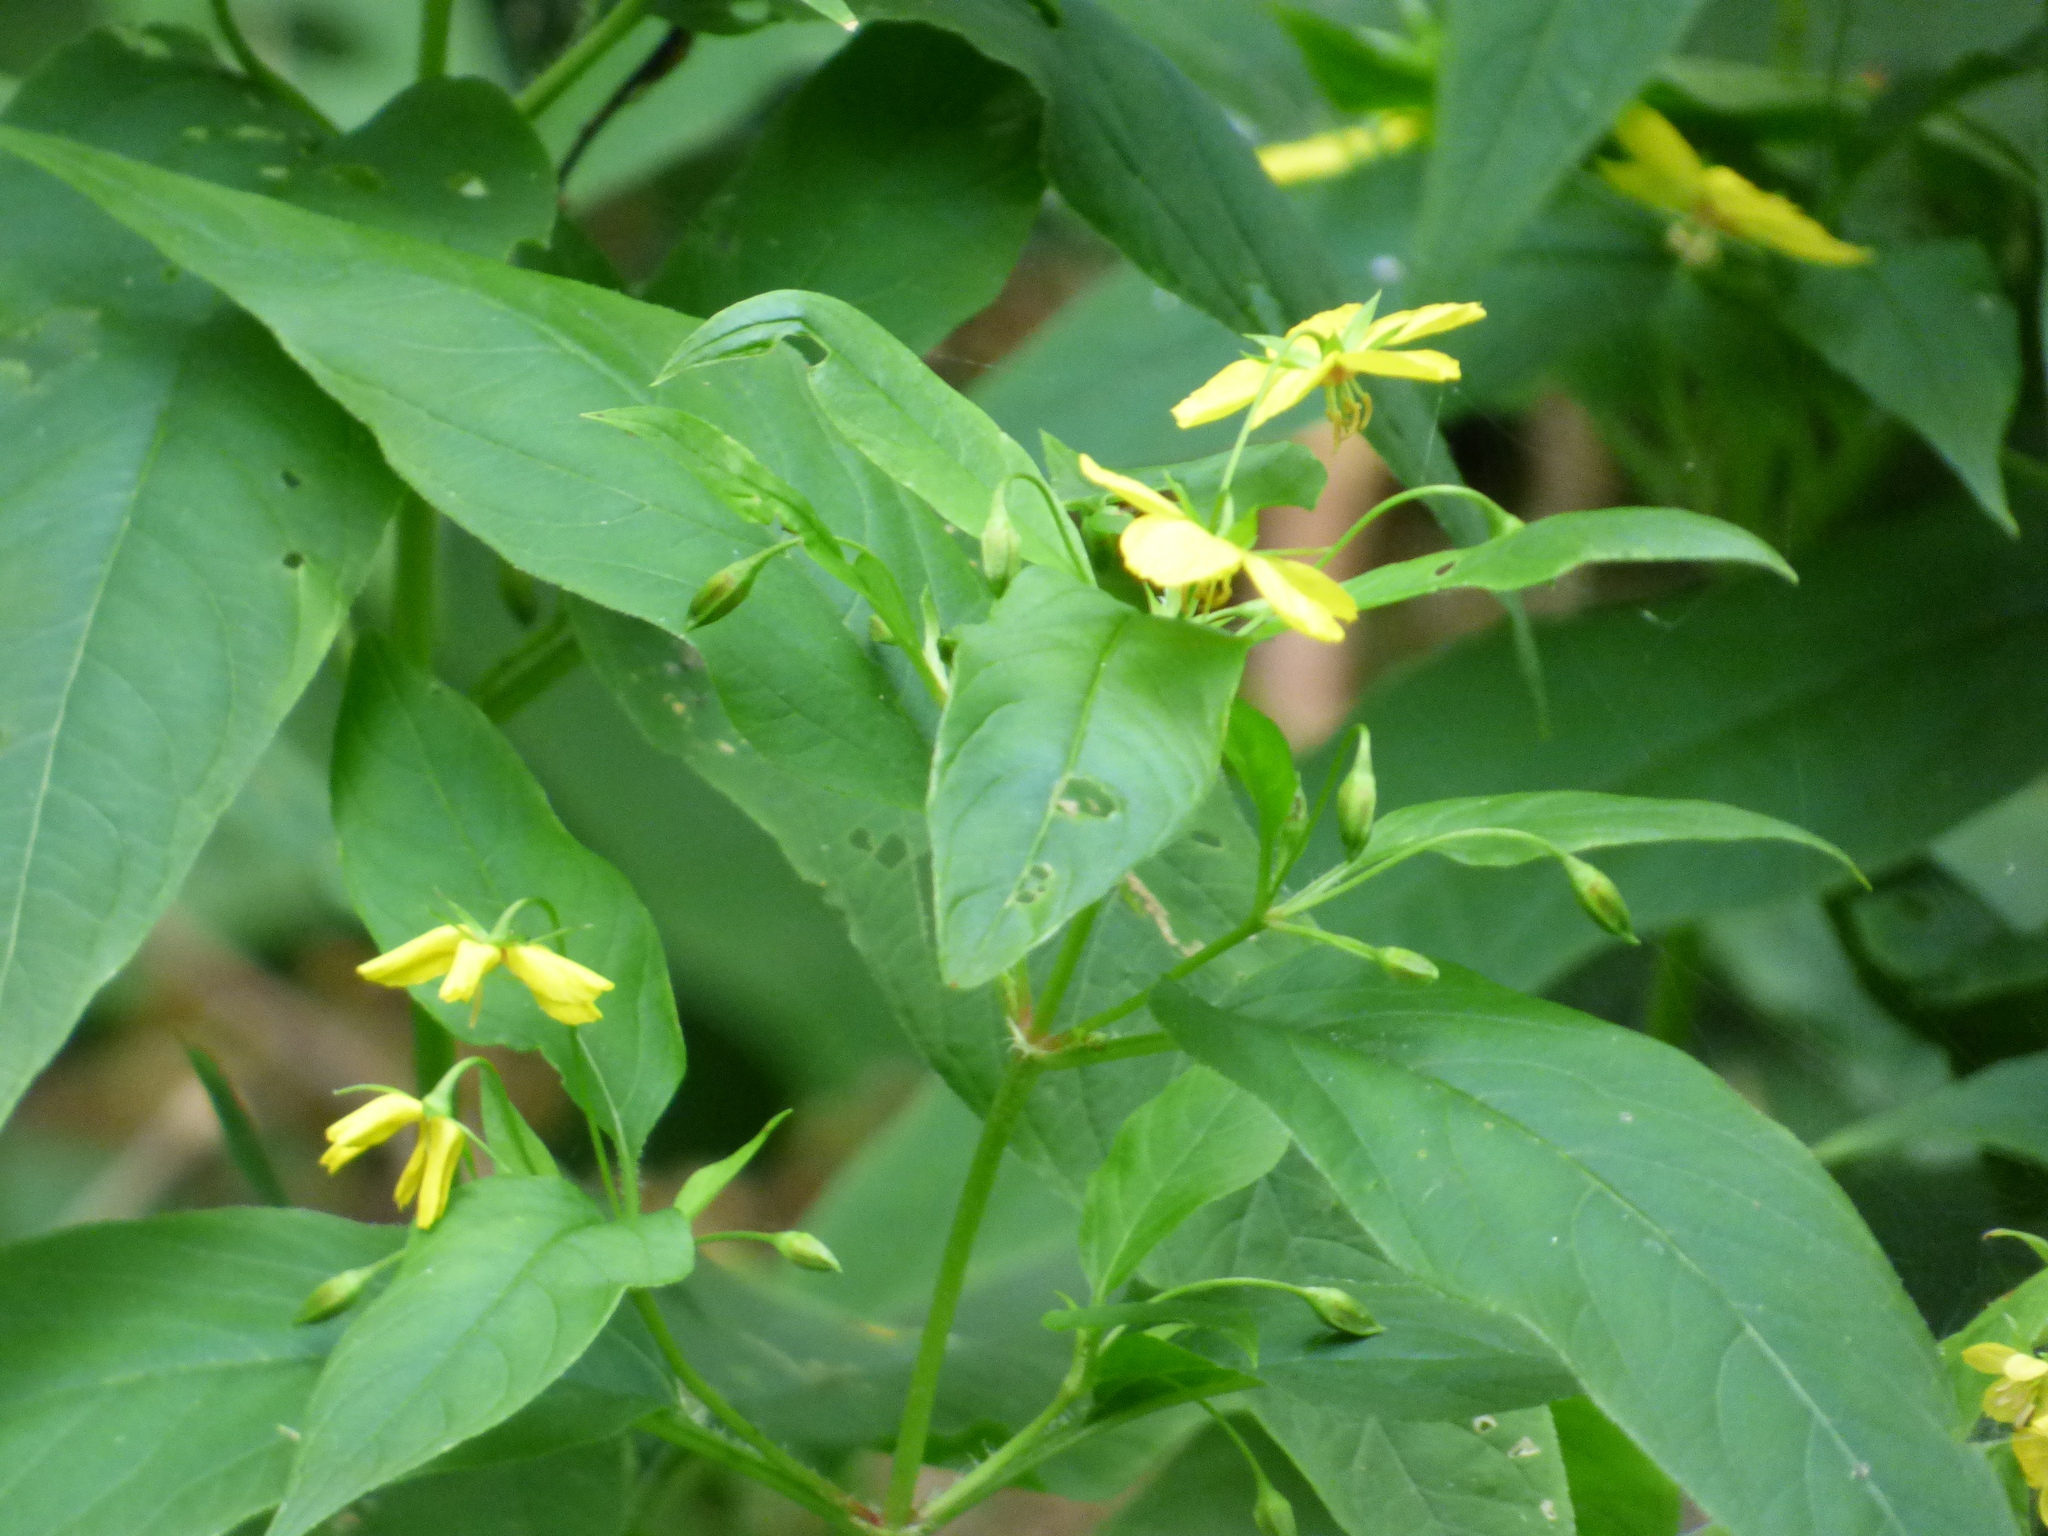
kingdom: Plantae
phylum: Tracheophyta
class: Magnoliopsida
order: Ericales
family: Primulaceae
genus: Lysimachia
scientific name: Lysimachia ciliata
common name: Fringed loosestrife
